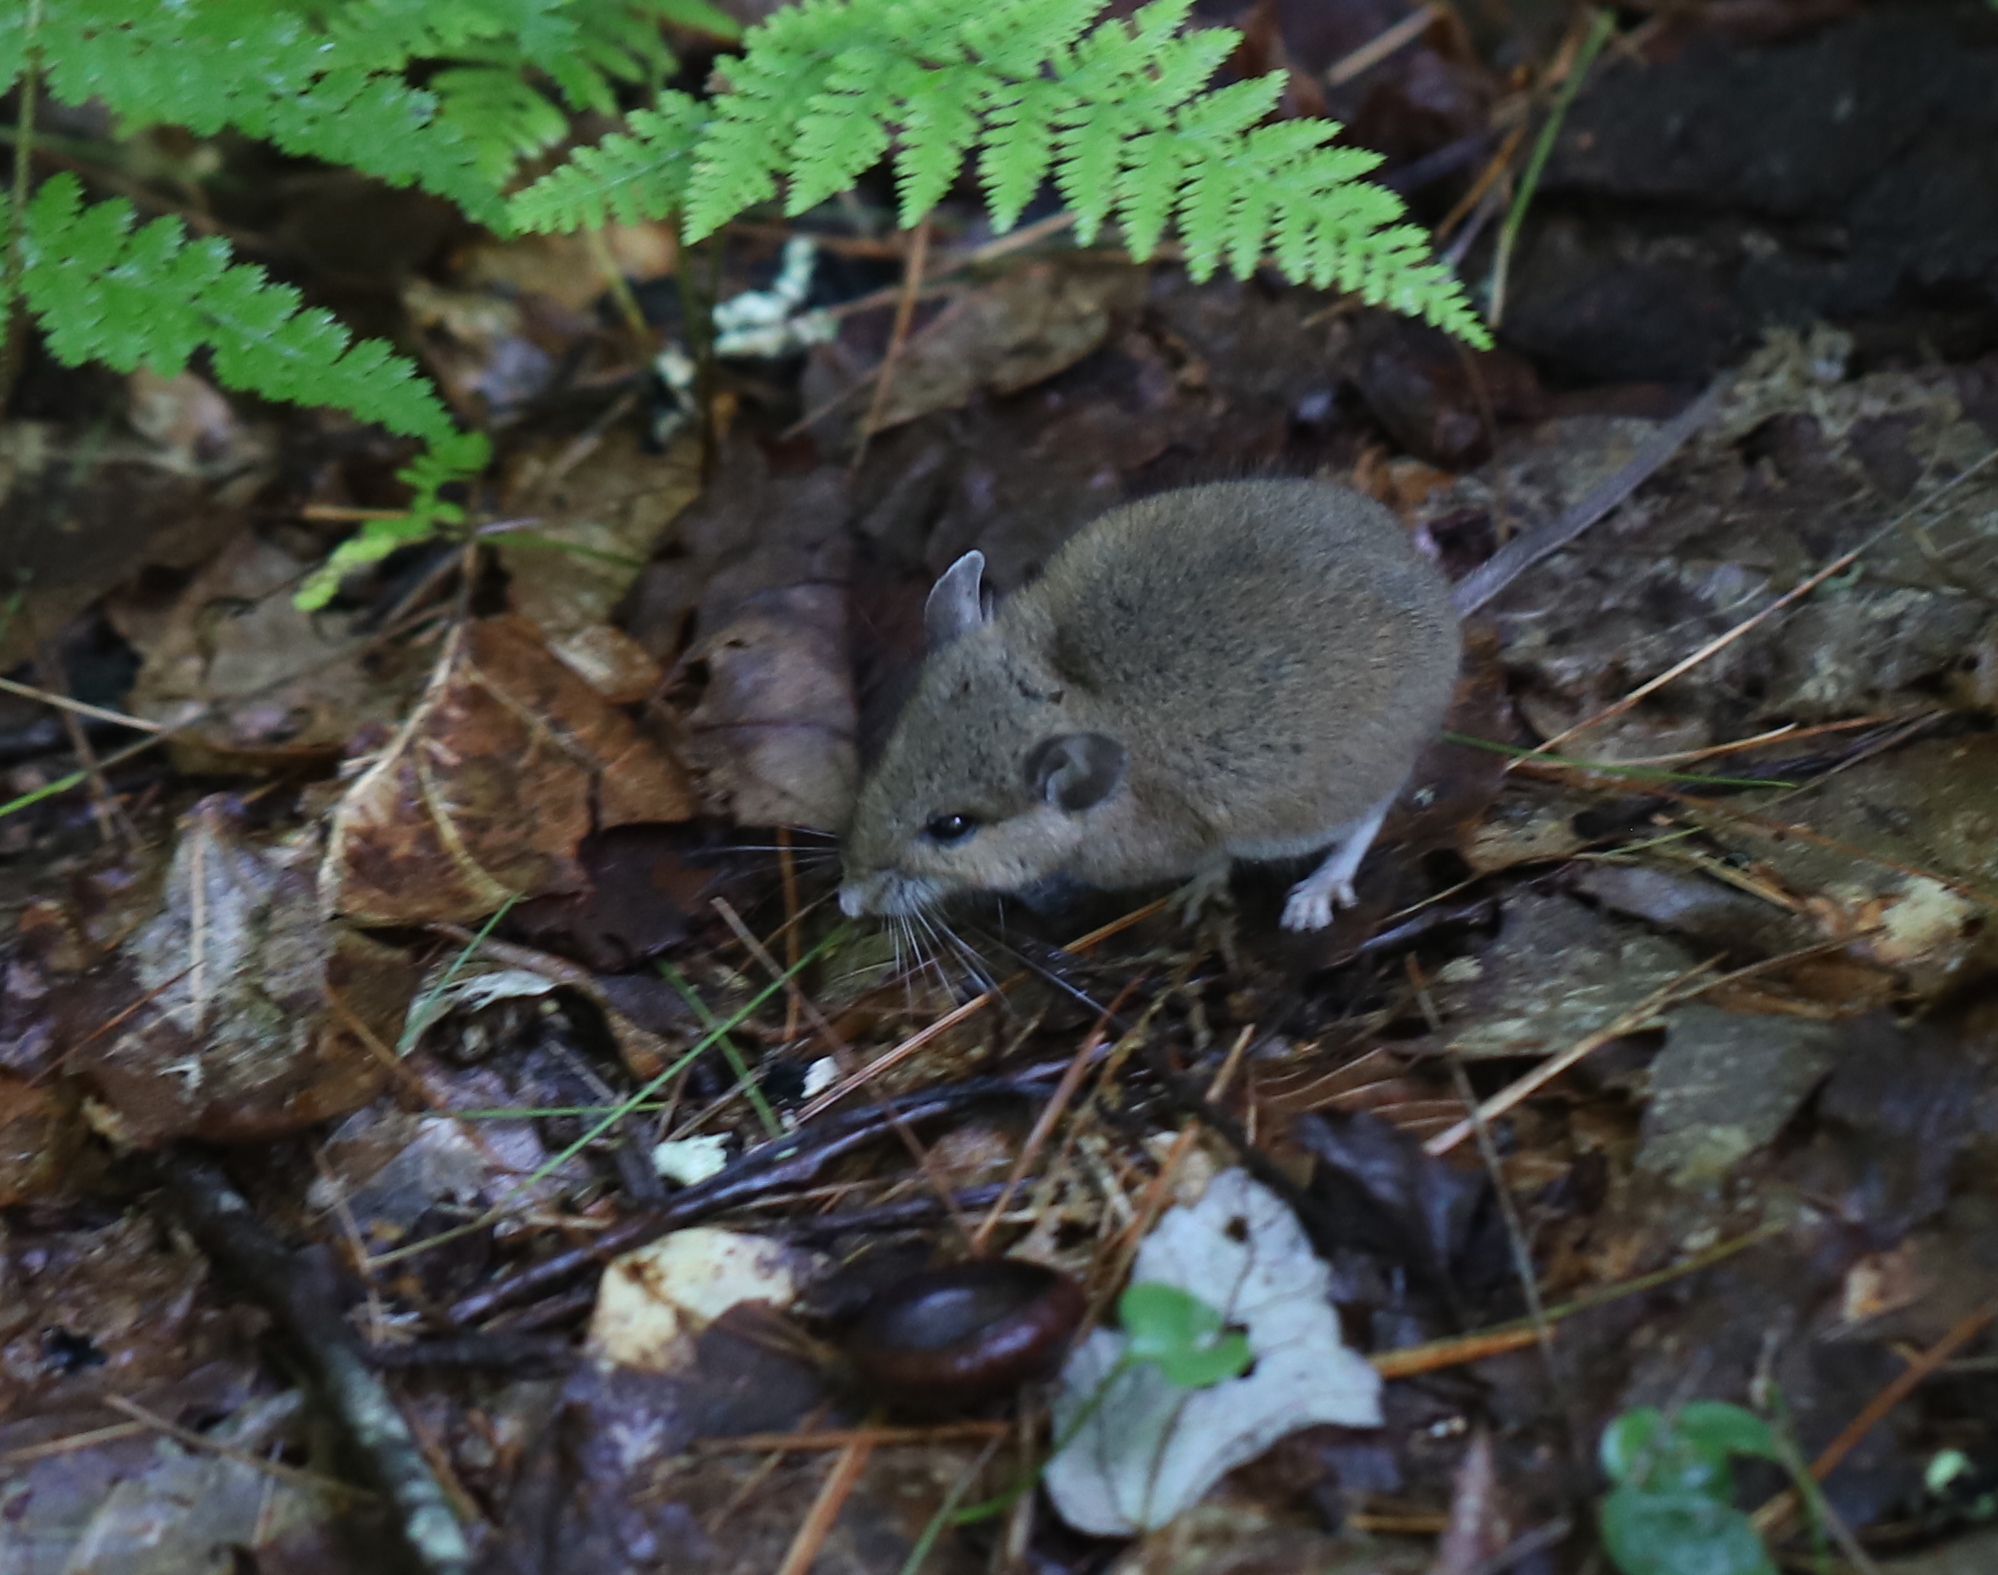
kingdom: Animalia
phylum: Chordata
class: Mammalia
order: Rodentia
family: Cricetidae
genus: Peromyscus
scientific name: Peromyscus leucopus
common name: White-footed deermouse
